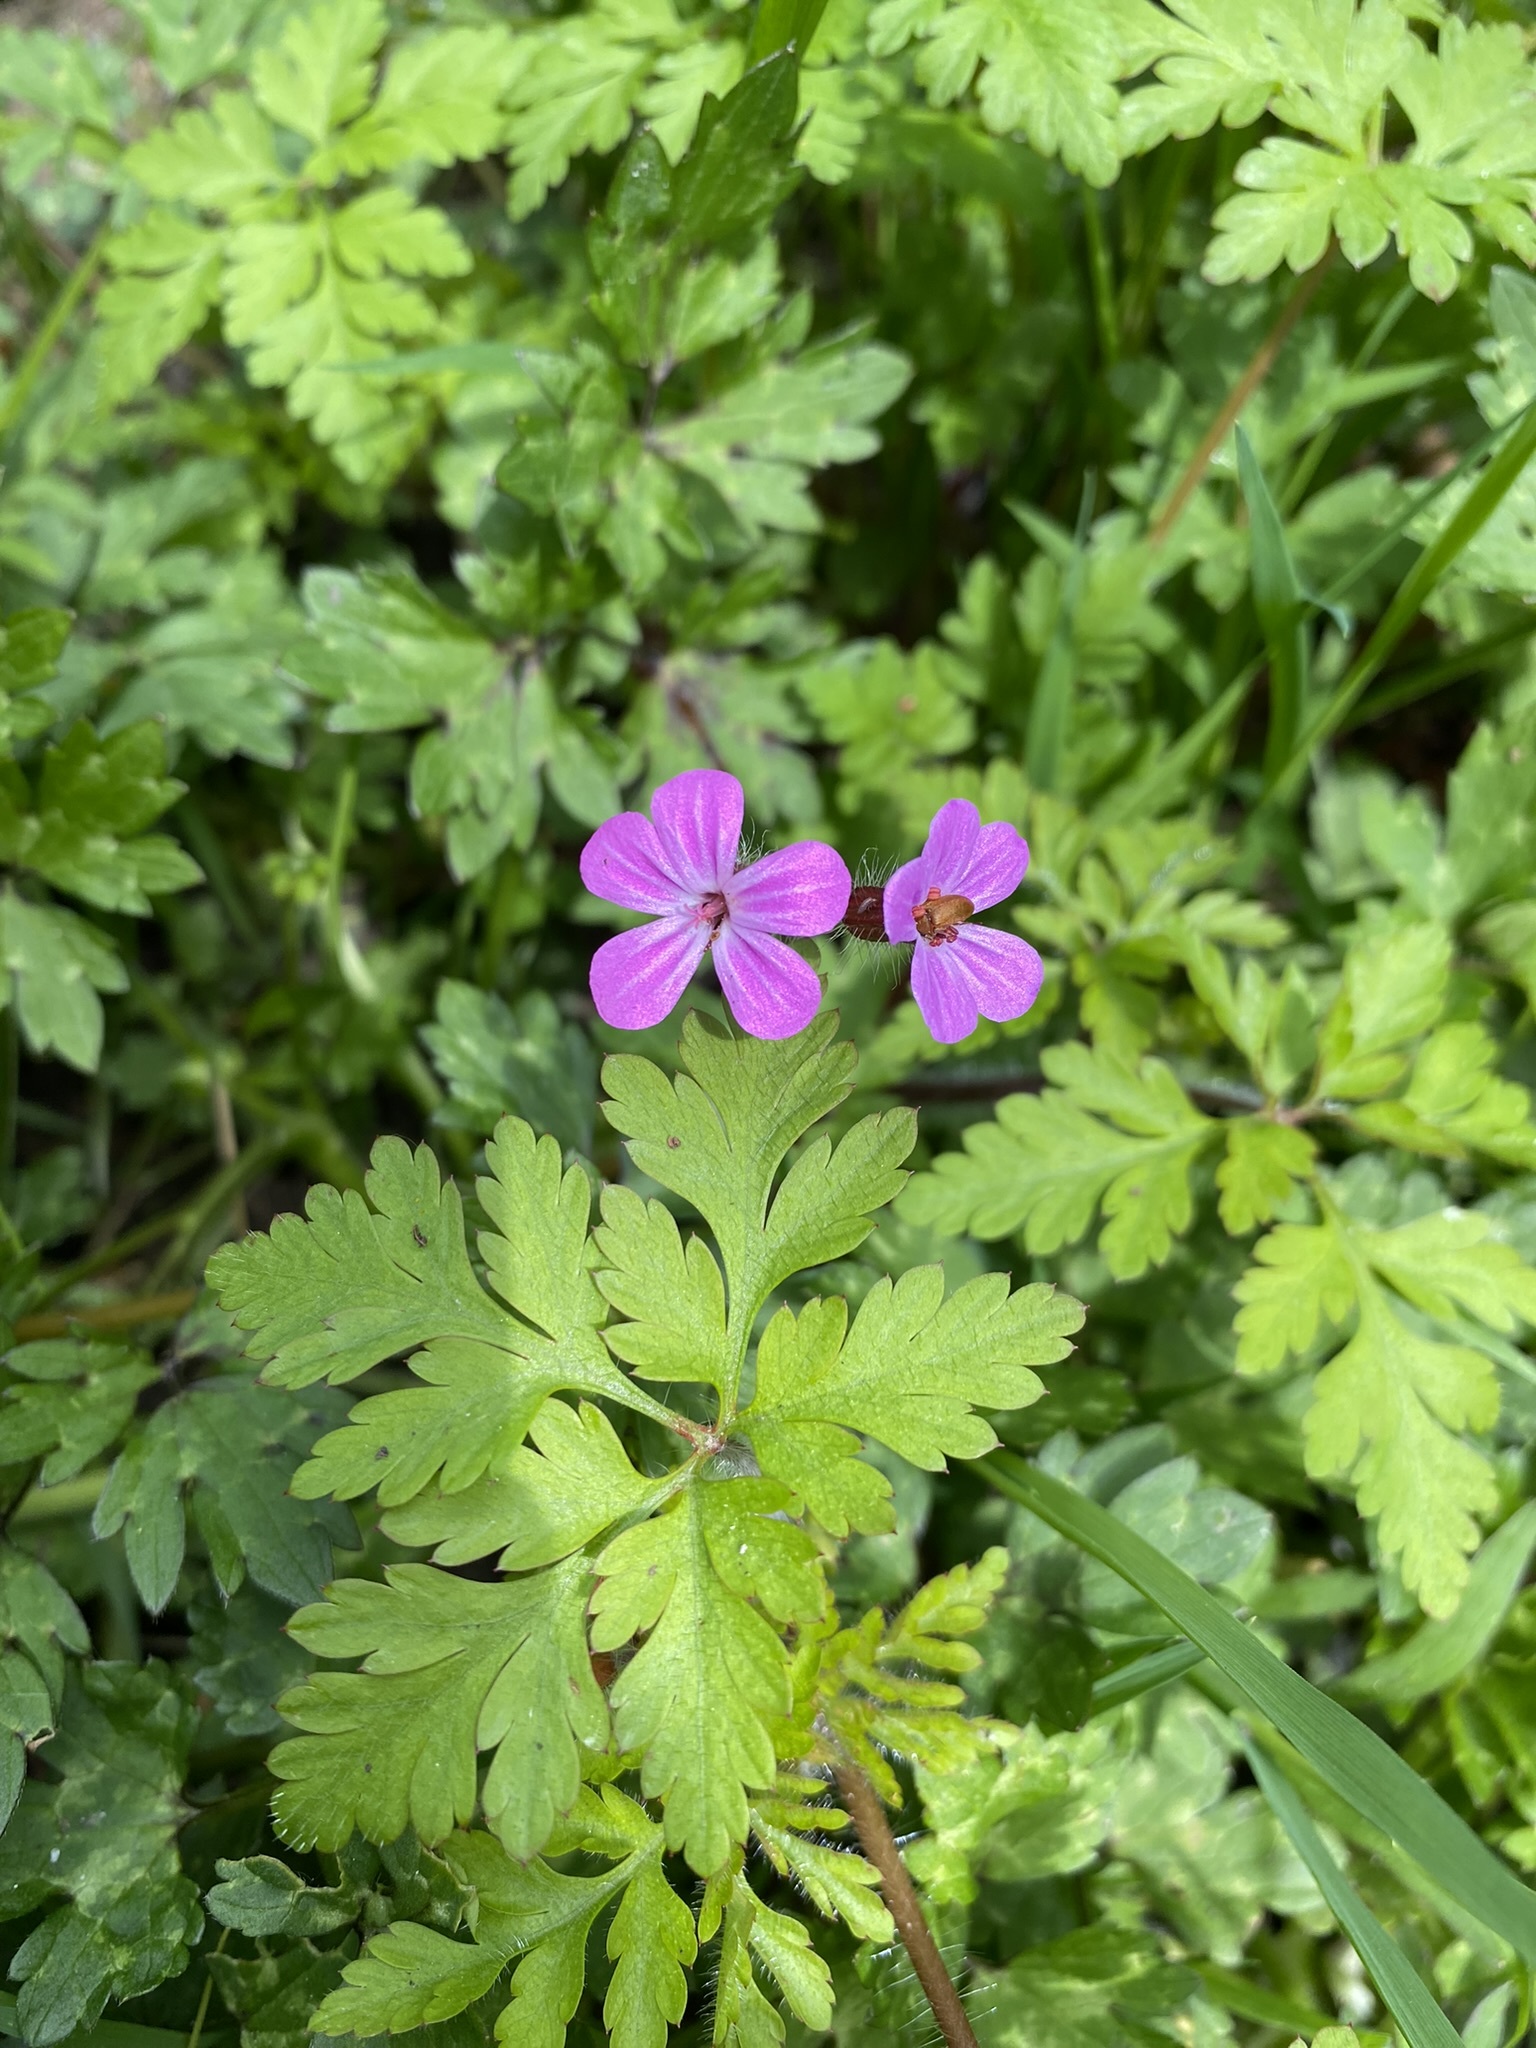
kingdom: Plantae
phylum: Tracheophyta
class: Magnoliopsida
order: Geraniales
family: Geraniaceae
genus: Geranium
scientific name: Geranium robertianum
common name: Herb-robert
